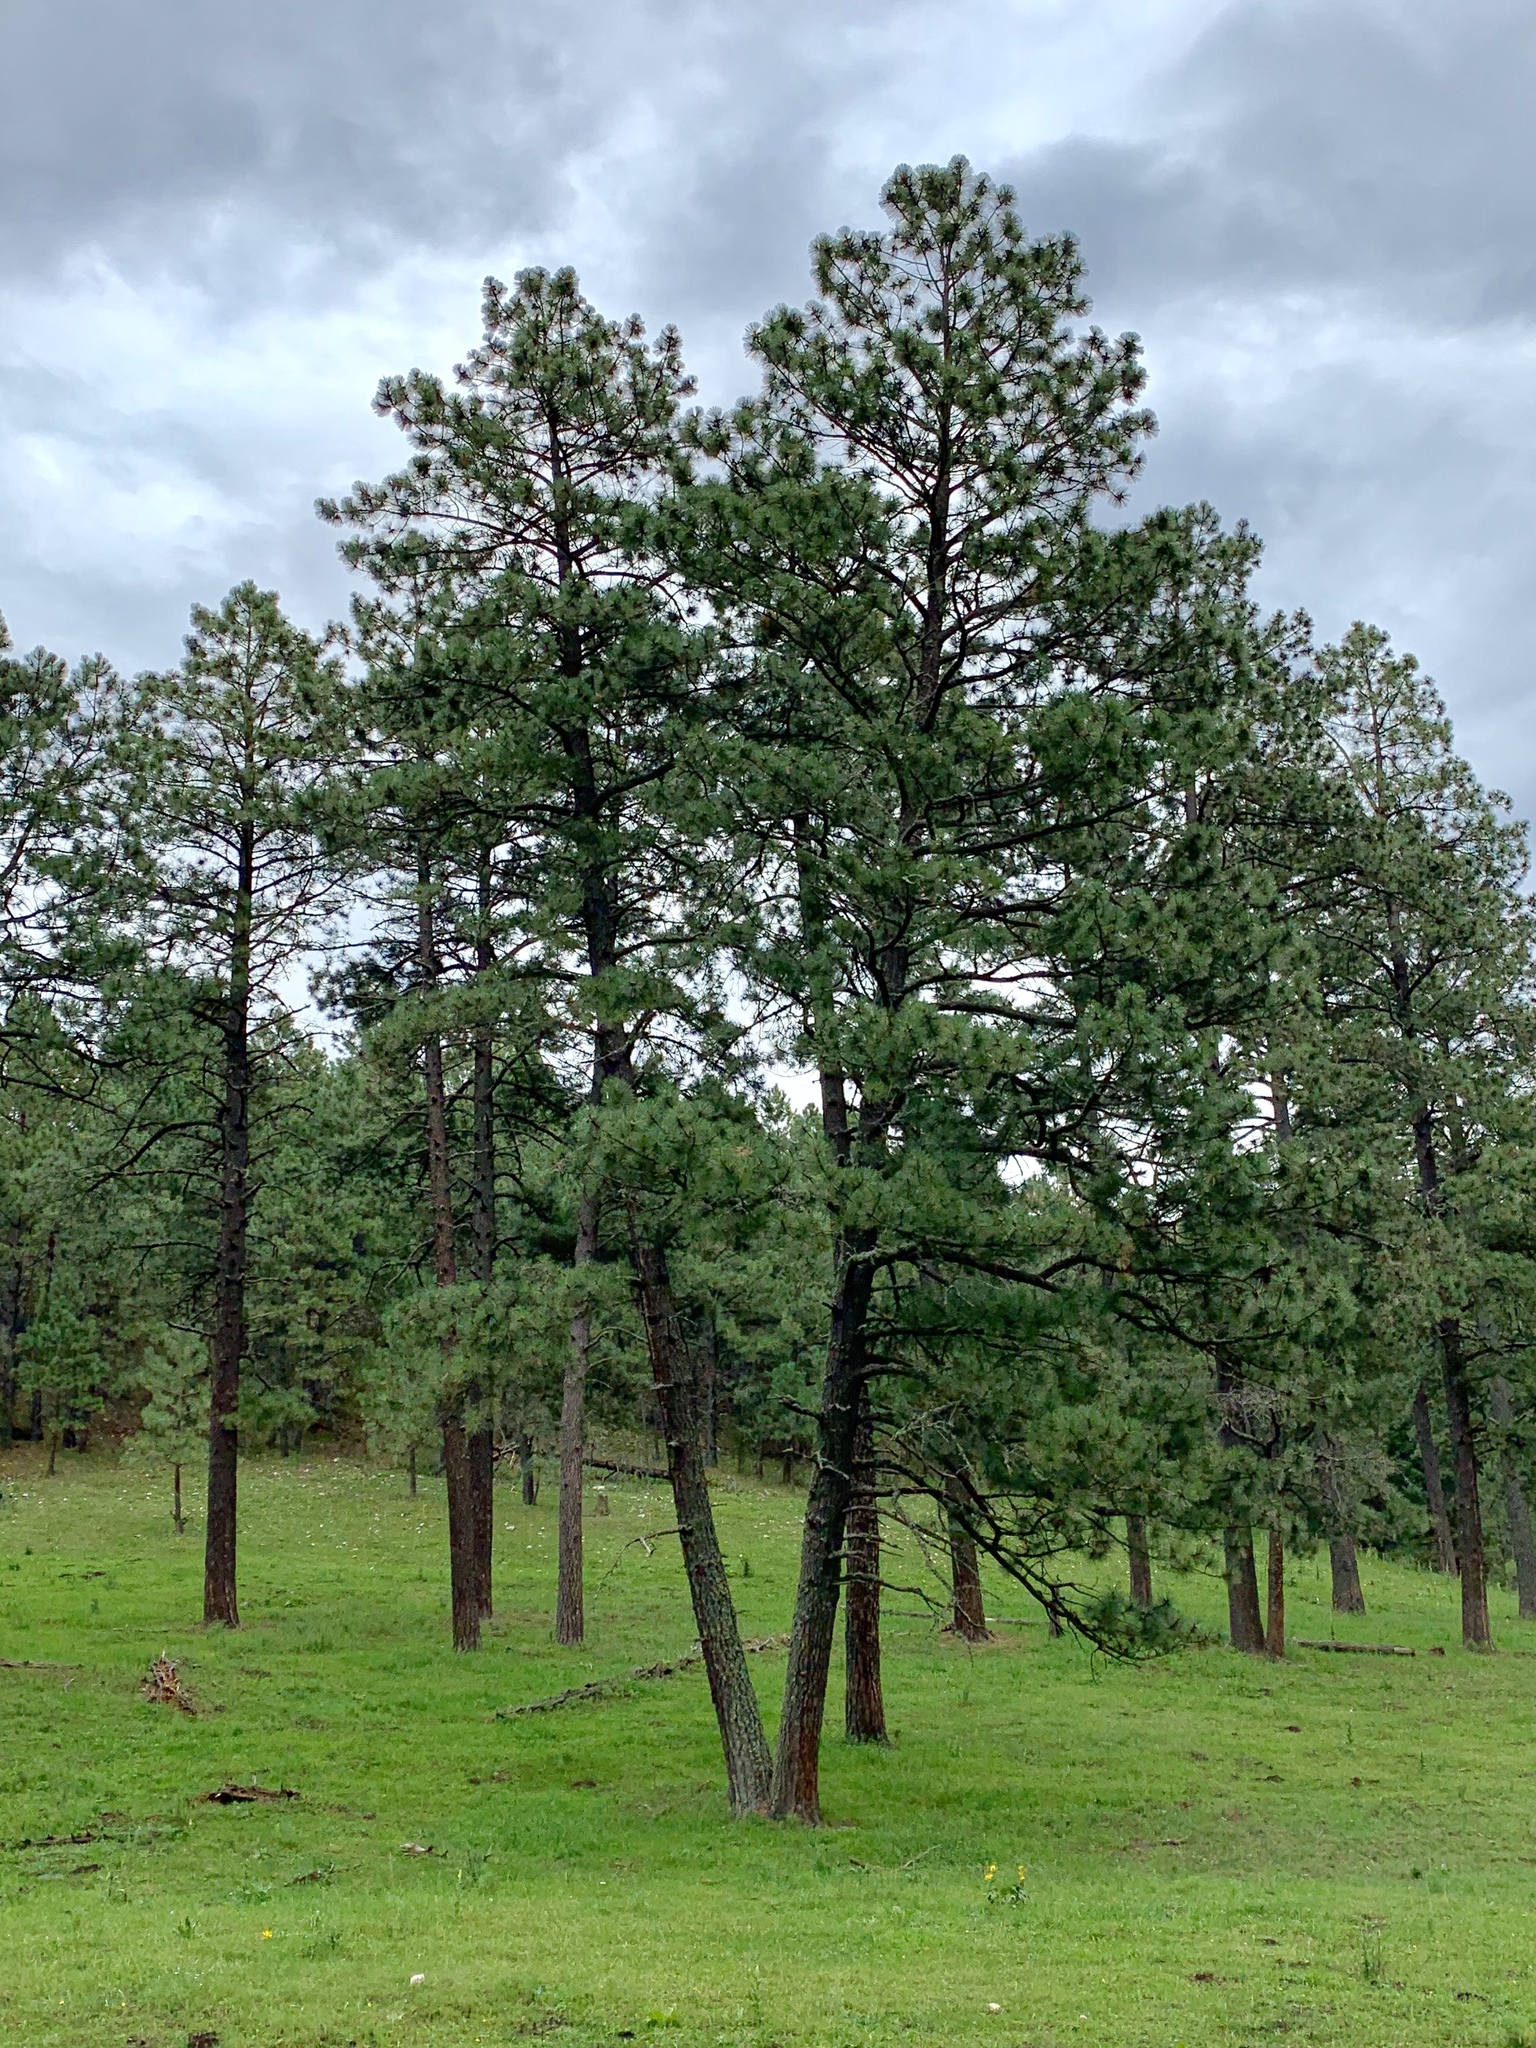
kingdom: Plantae
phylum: Tracheophyta
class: Pinopsida
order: Pinales
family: Pinaceae
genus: Pinus
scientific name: Pinus ponderosa
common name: Western yellow-pine
